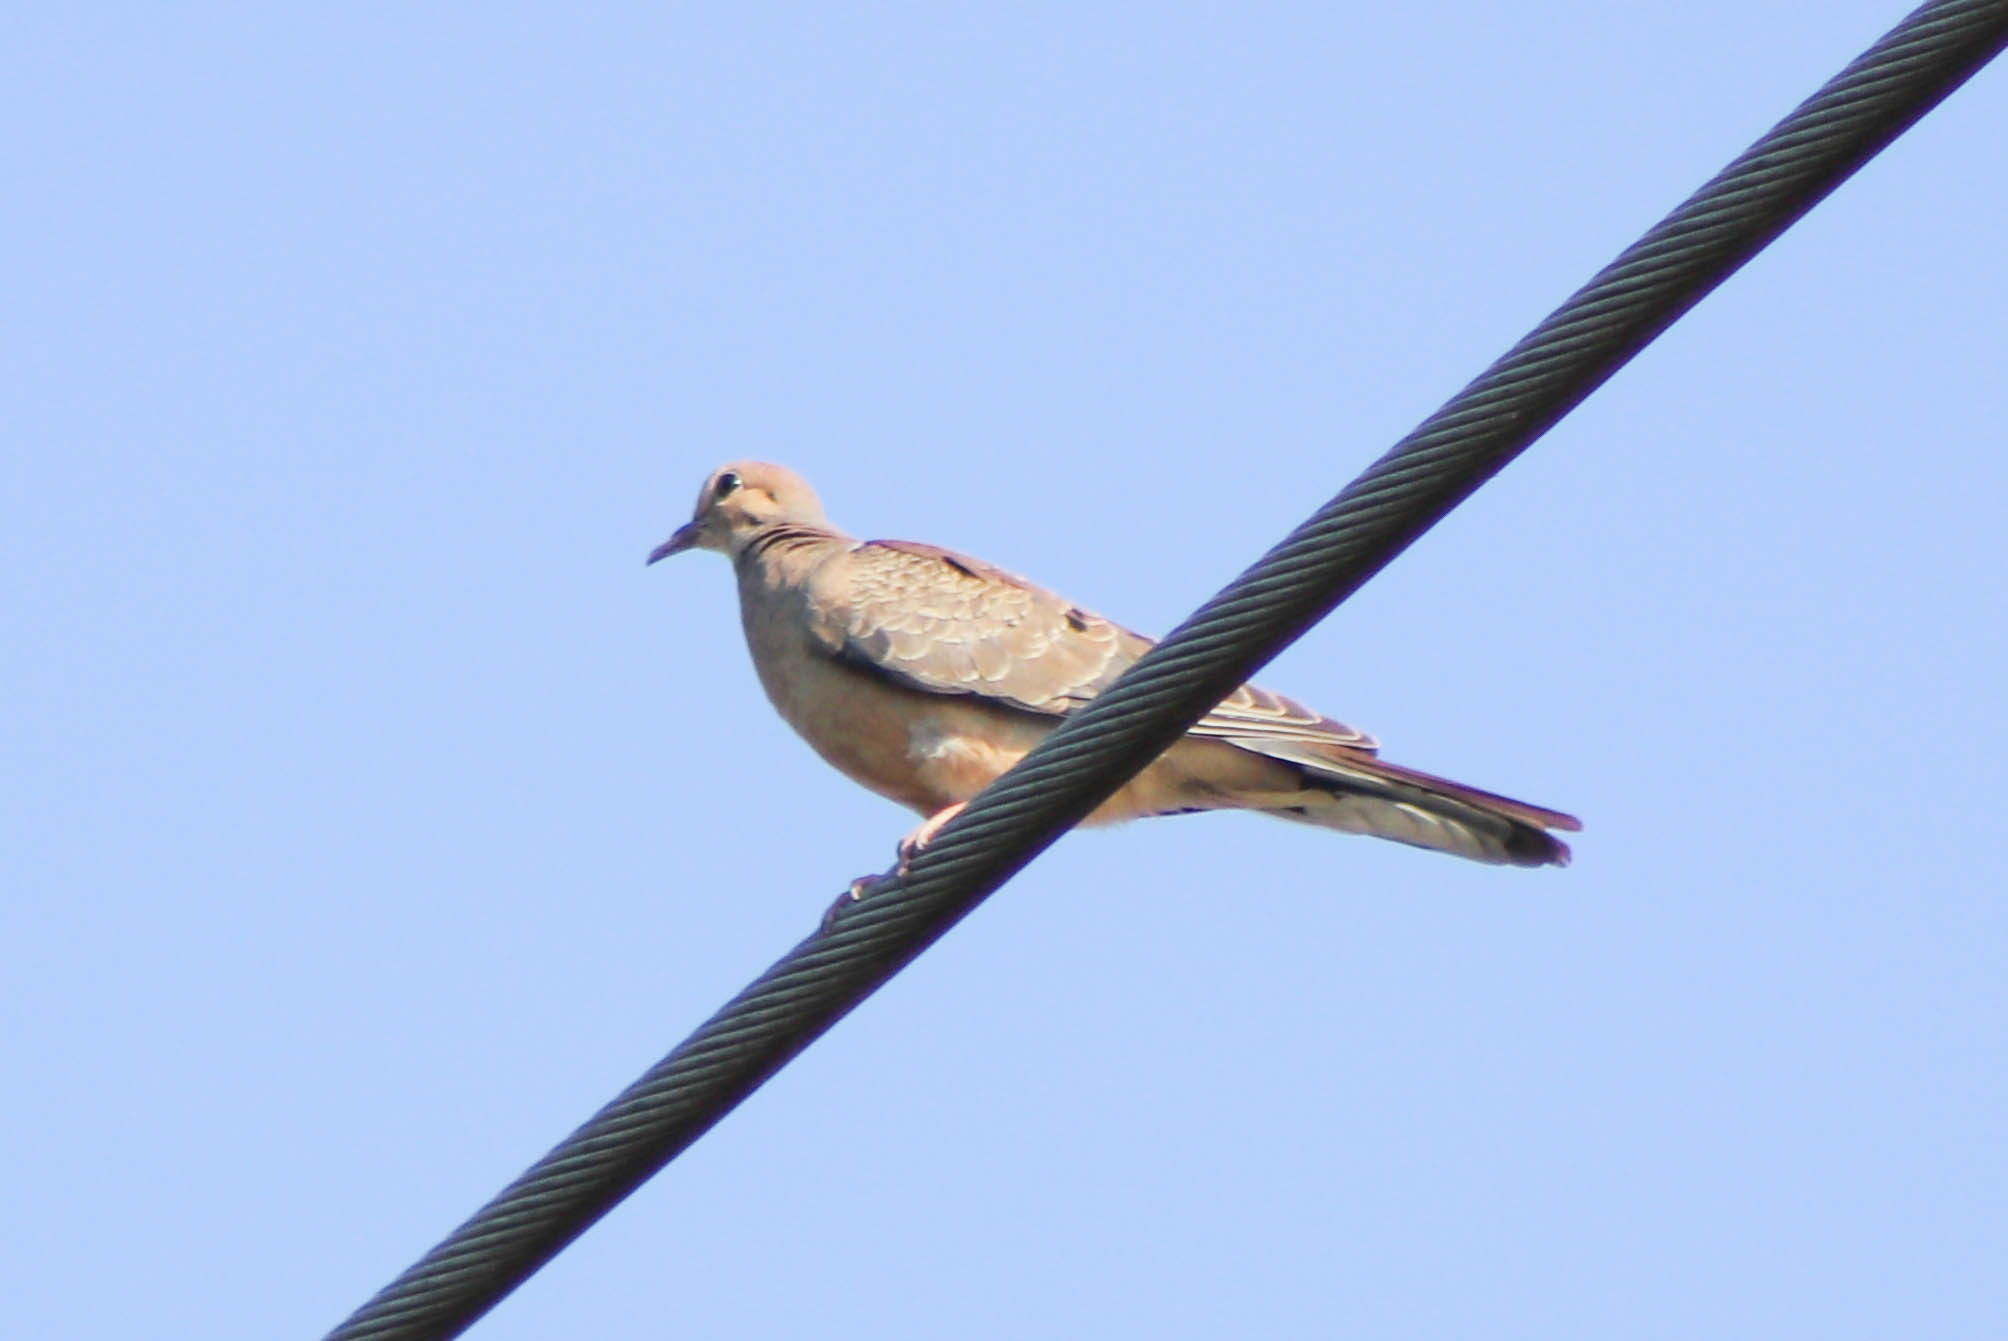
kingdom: Animalia
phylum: Chordata
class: Aves
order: Columbiformes
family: Columbidae
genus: Zenaida
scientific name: Zenaida macroura
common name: Mourning dove
